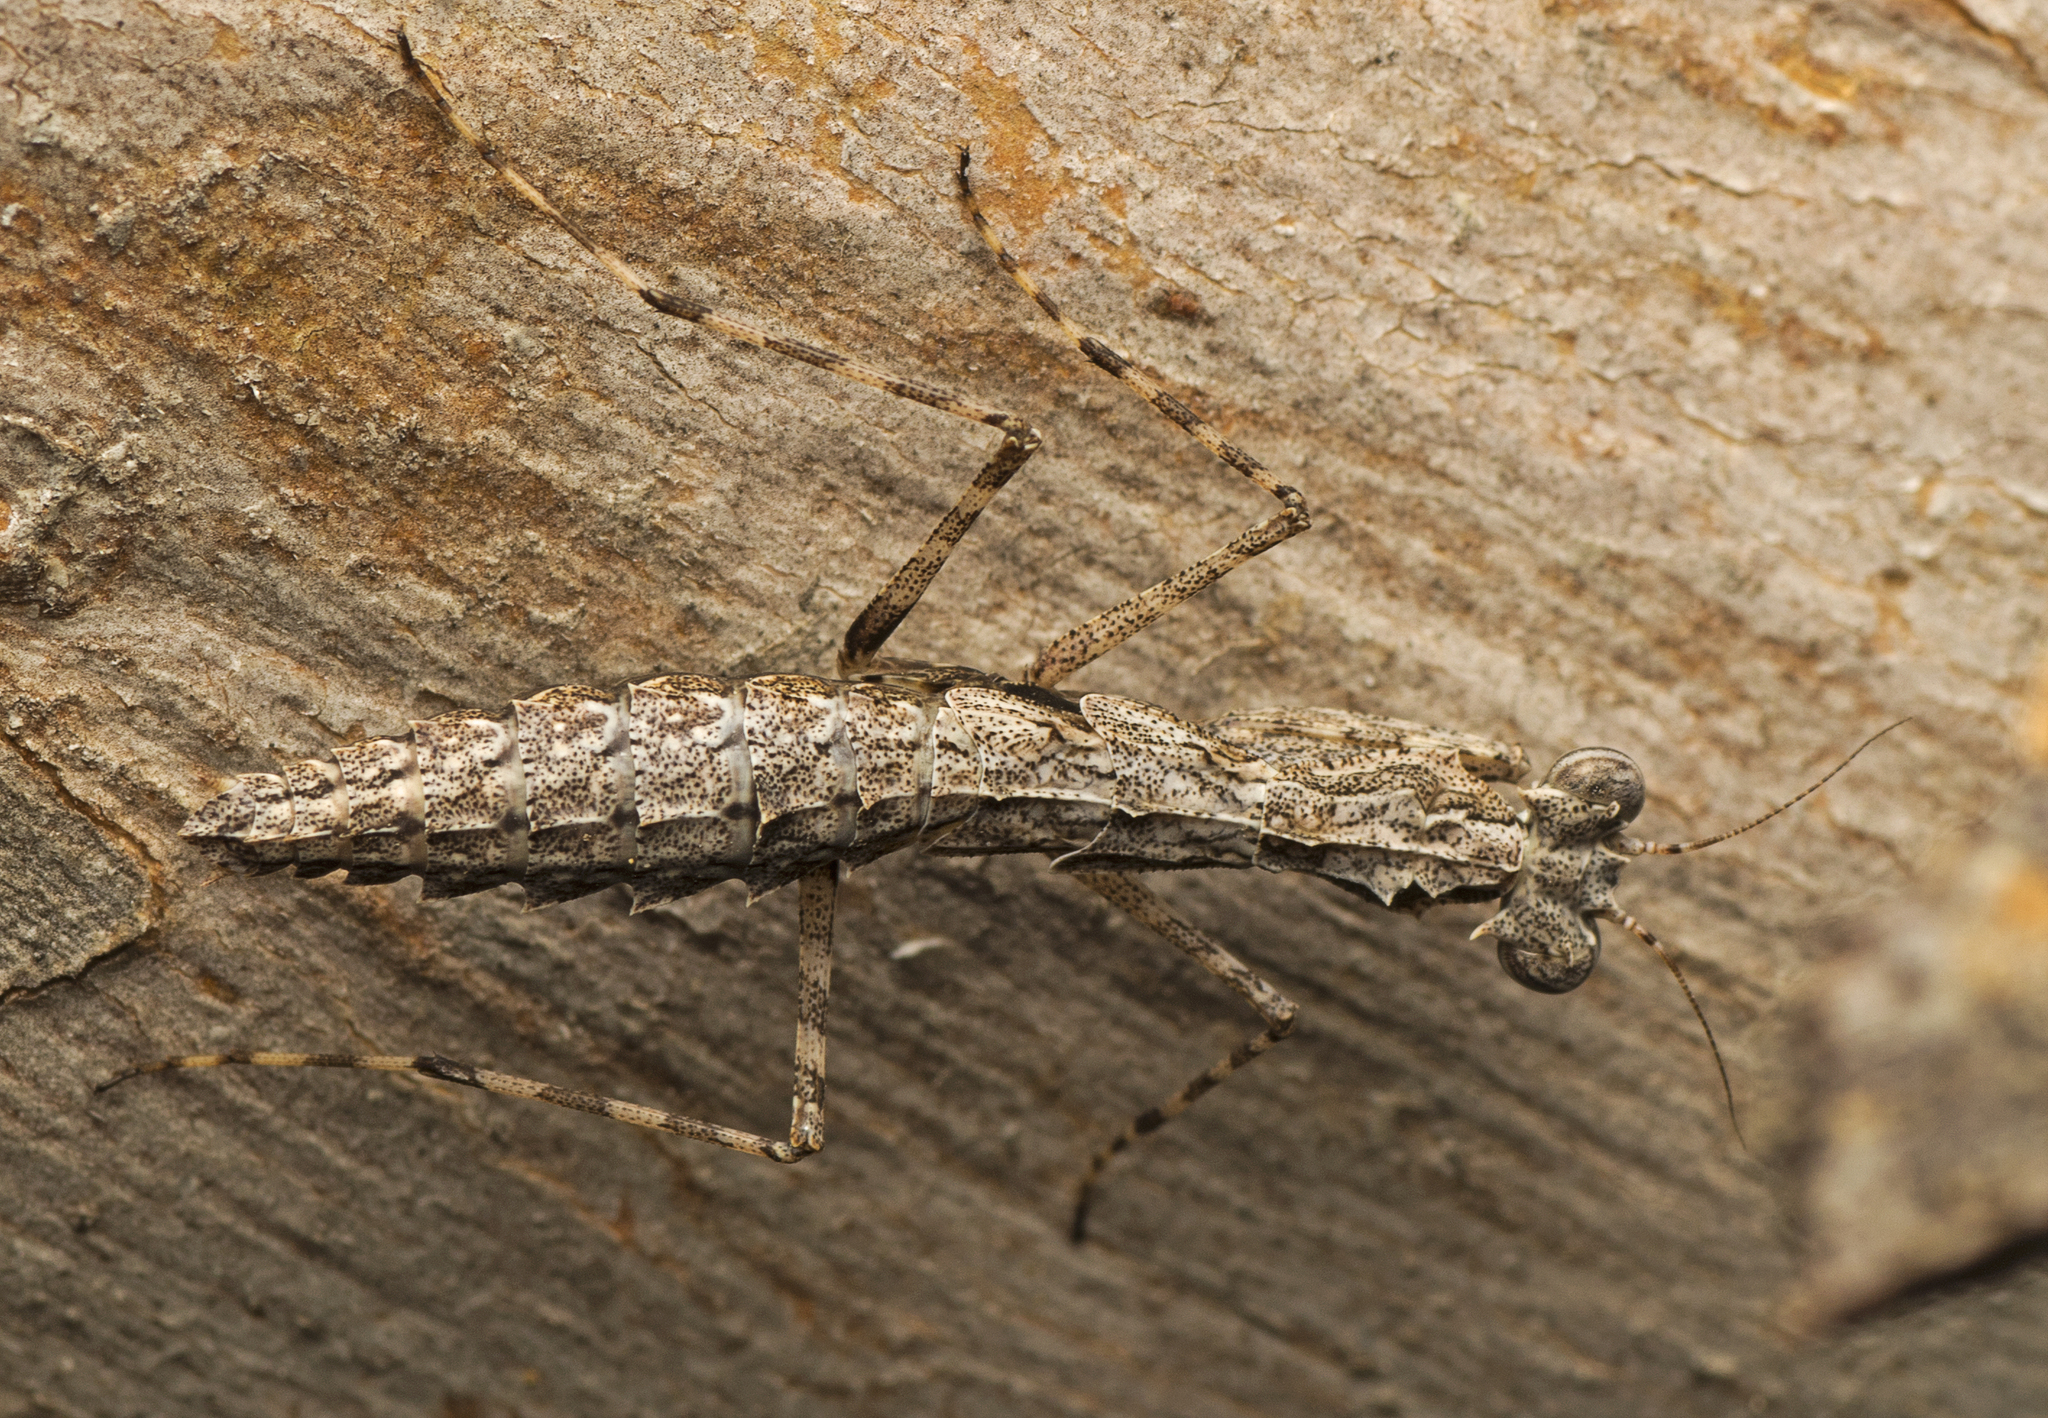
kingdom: Animalia
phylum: Arthropoda
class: Insecta
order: Mantodea
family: Nanomantidae
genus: Gyromantis
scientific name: Gyromantis occidentalis
